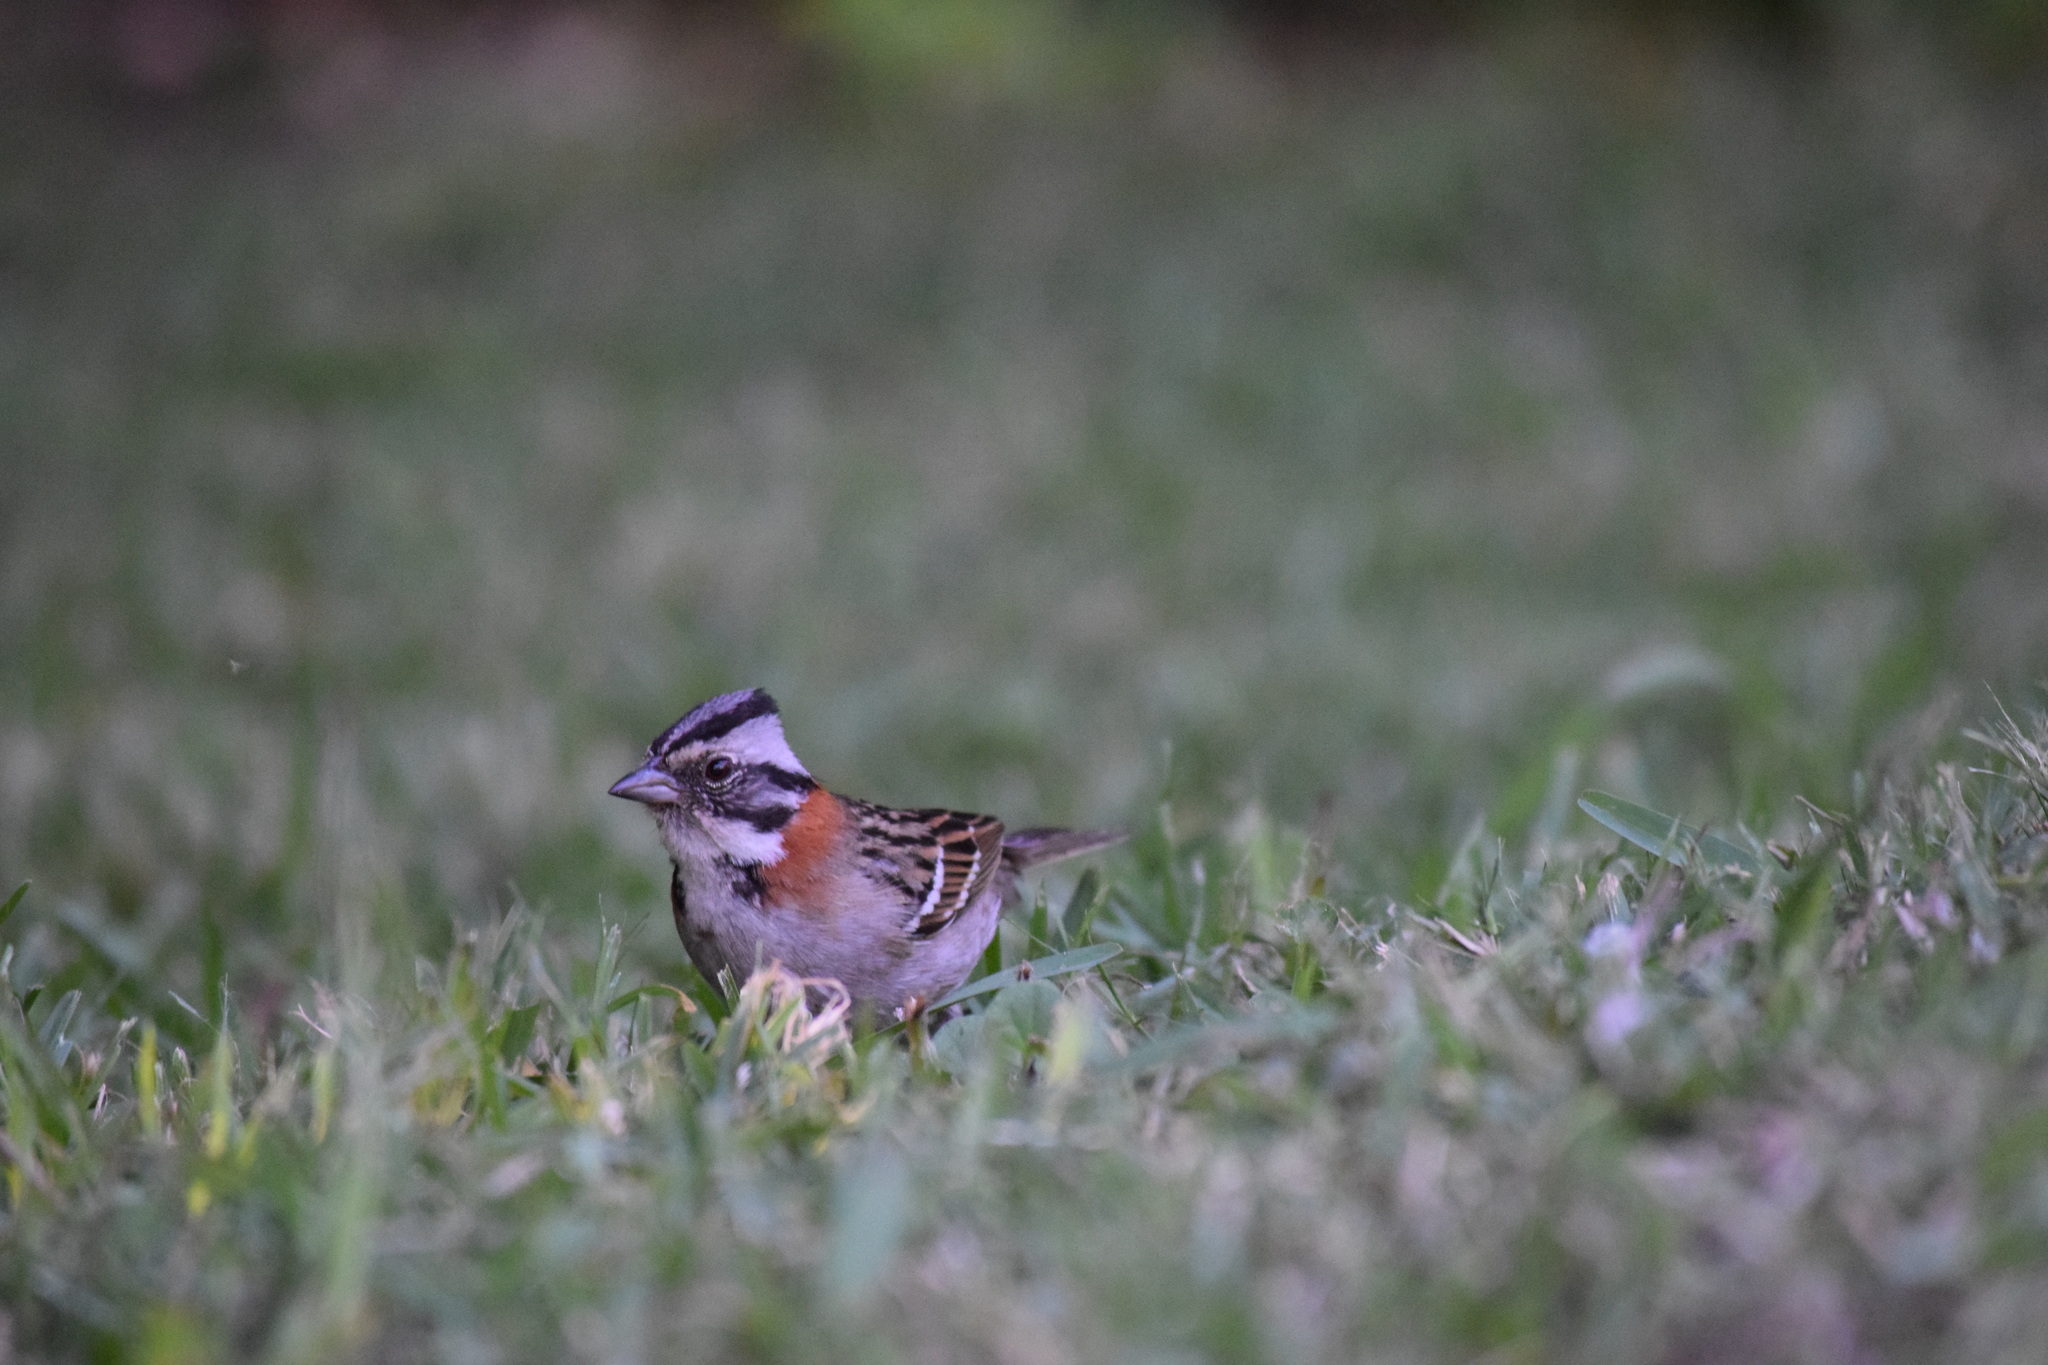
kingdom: Animalia
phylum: Chordata
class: Aves
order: Passeriformes
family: Passerellidae
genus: Zonotrichia
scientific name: Zonotrichia capensis
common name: Rufous-collared sparrow
